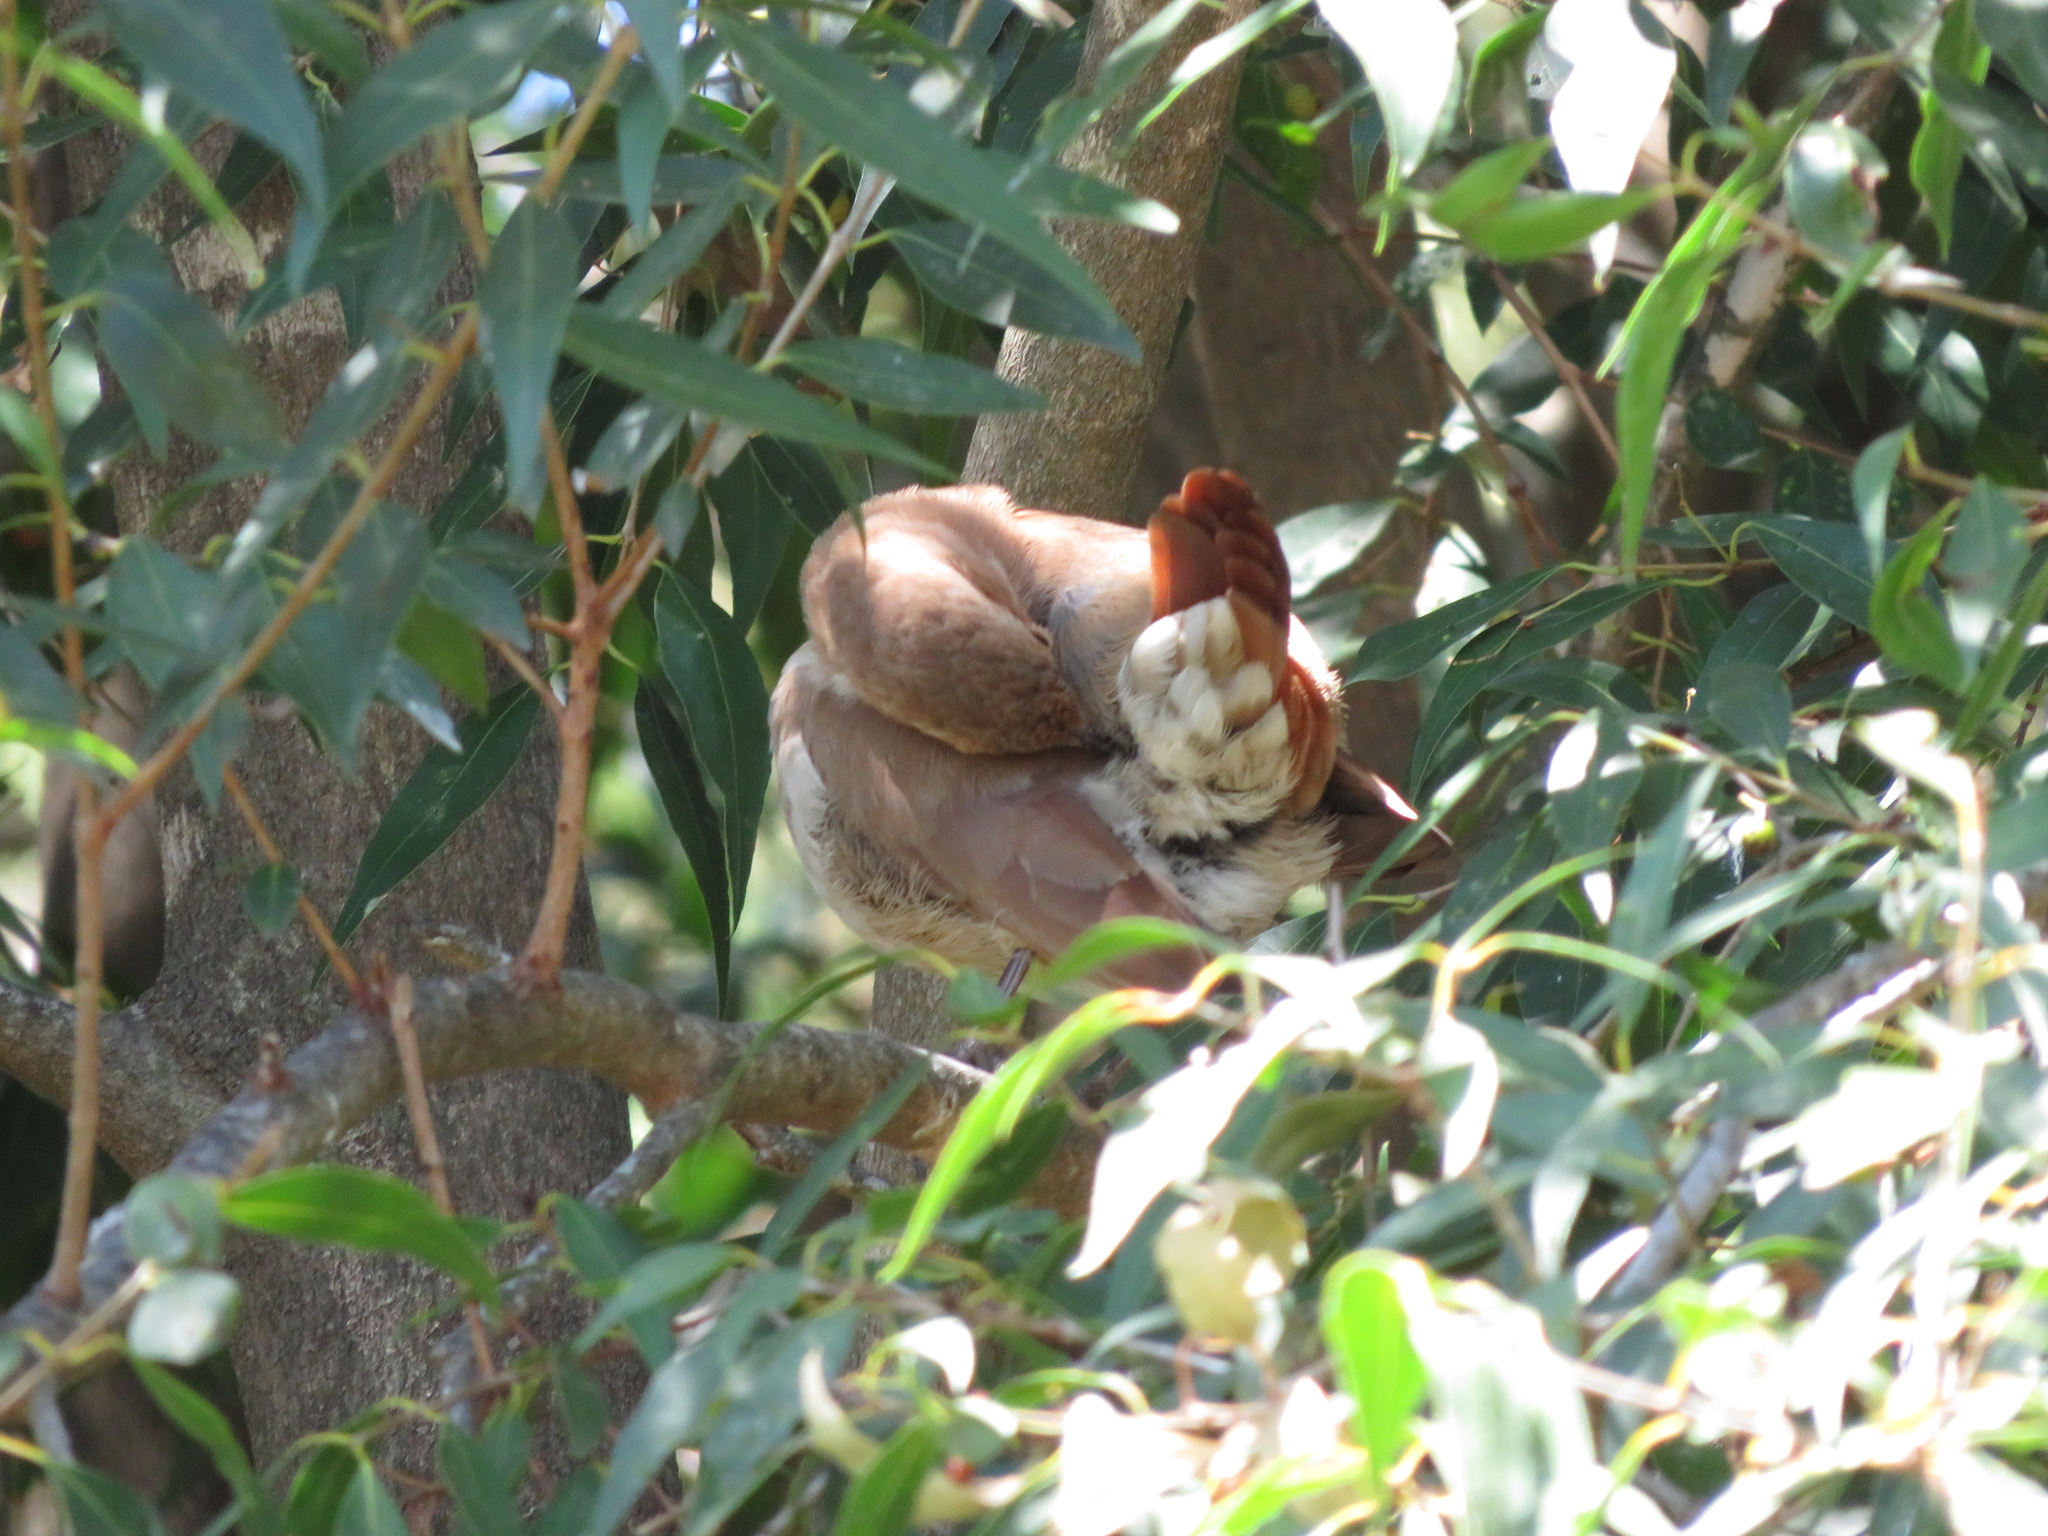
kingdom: Animalia
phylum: Chordata
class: Aves
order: Passeriformes
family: Furnariidae
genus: Furnarius
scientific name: Furnarius rufus
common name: Rufous hornero
